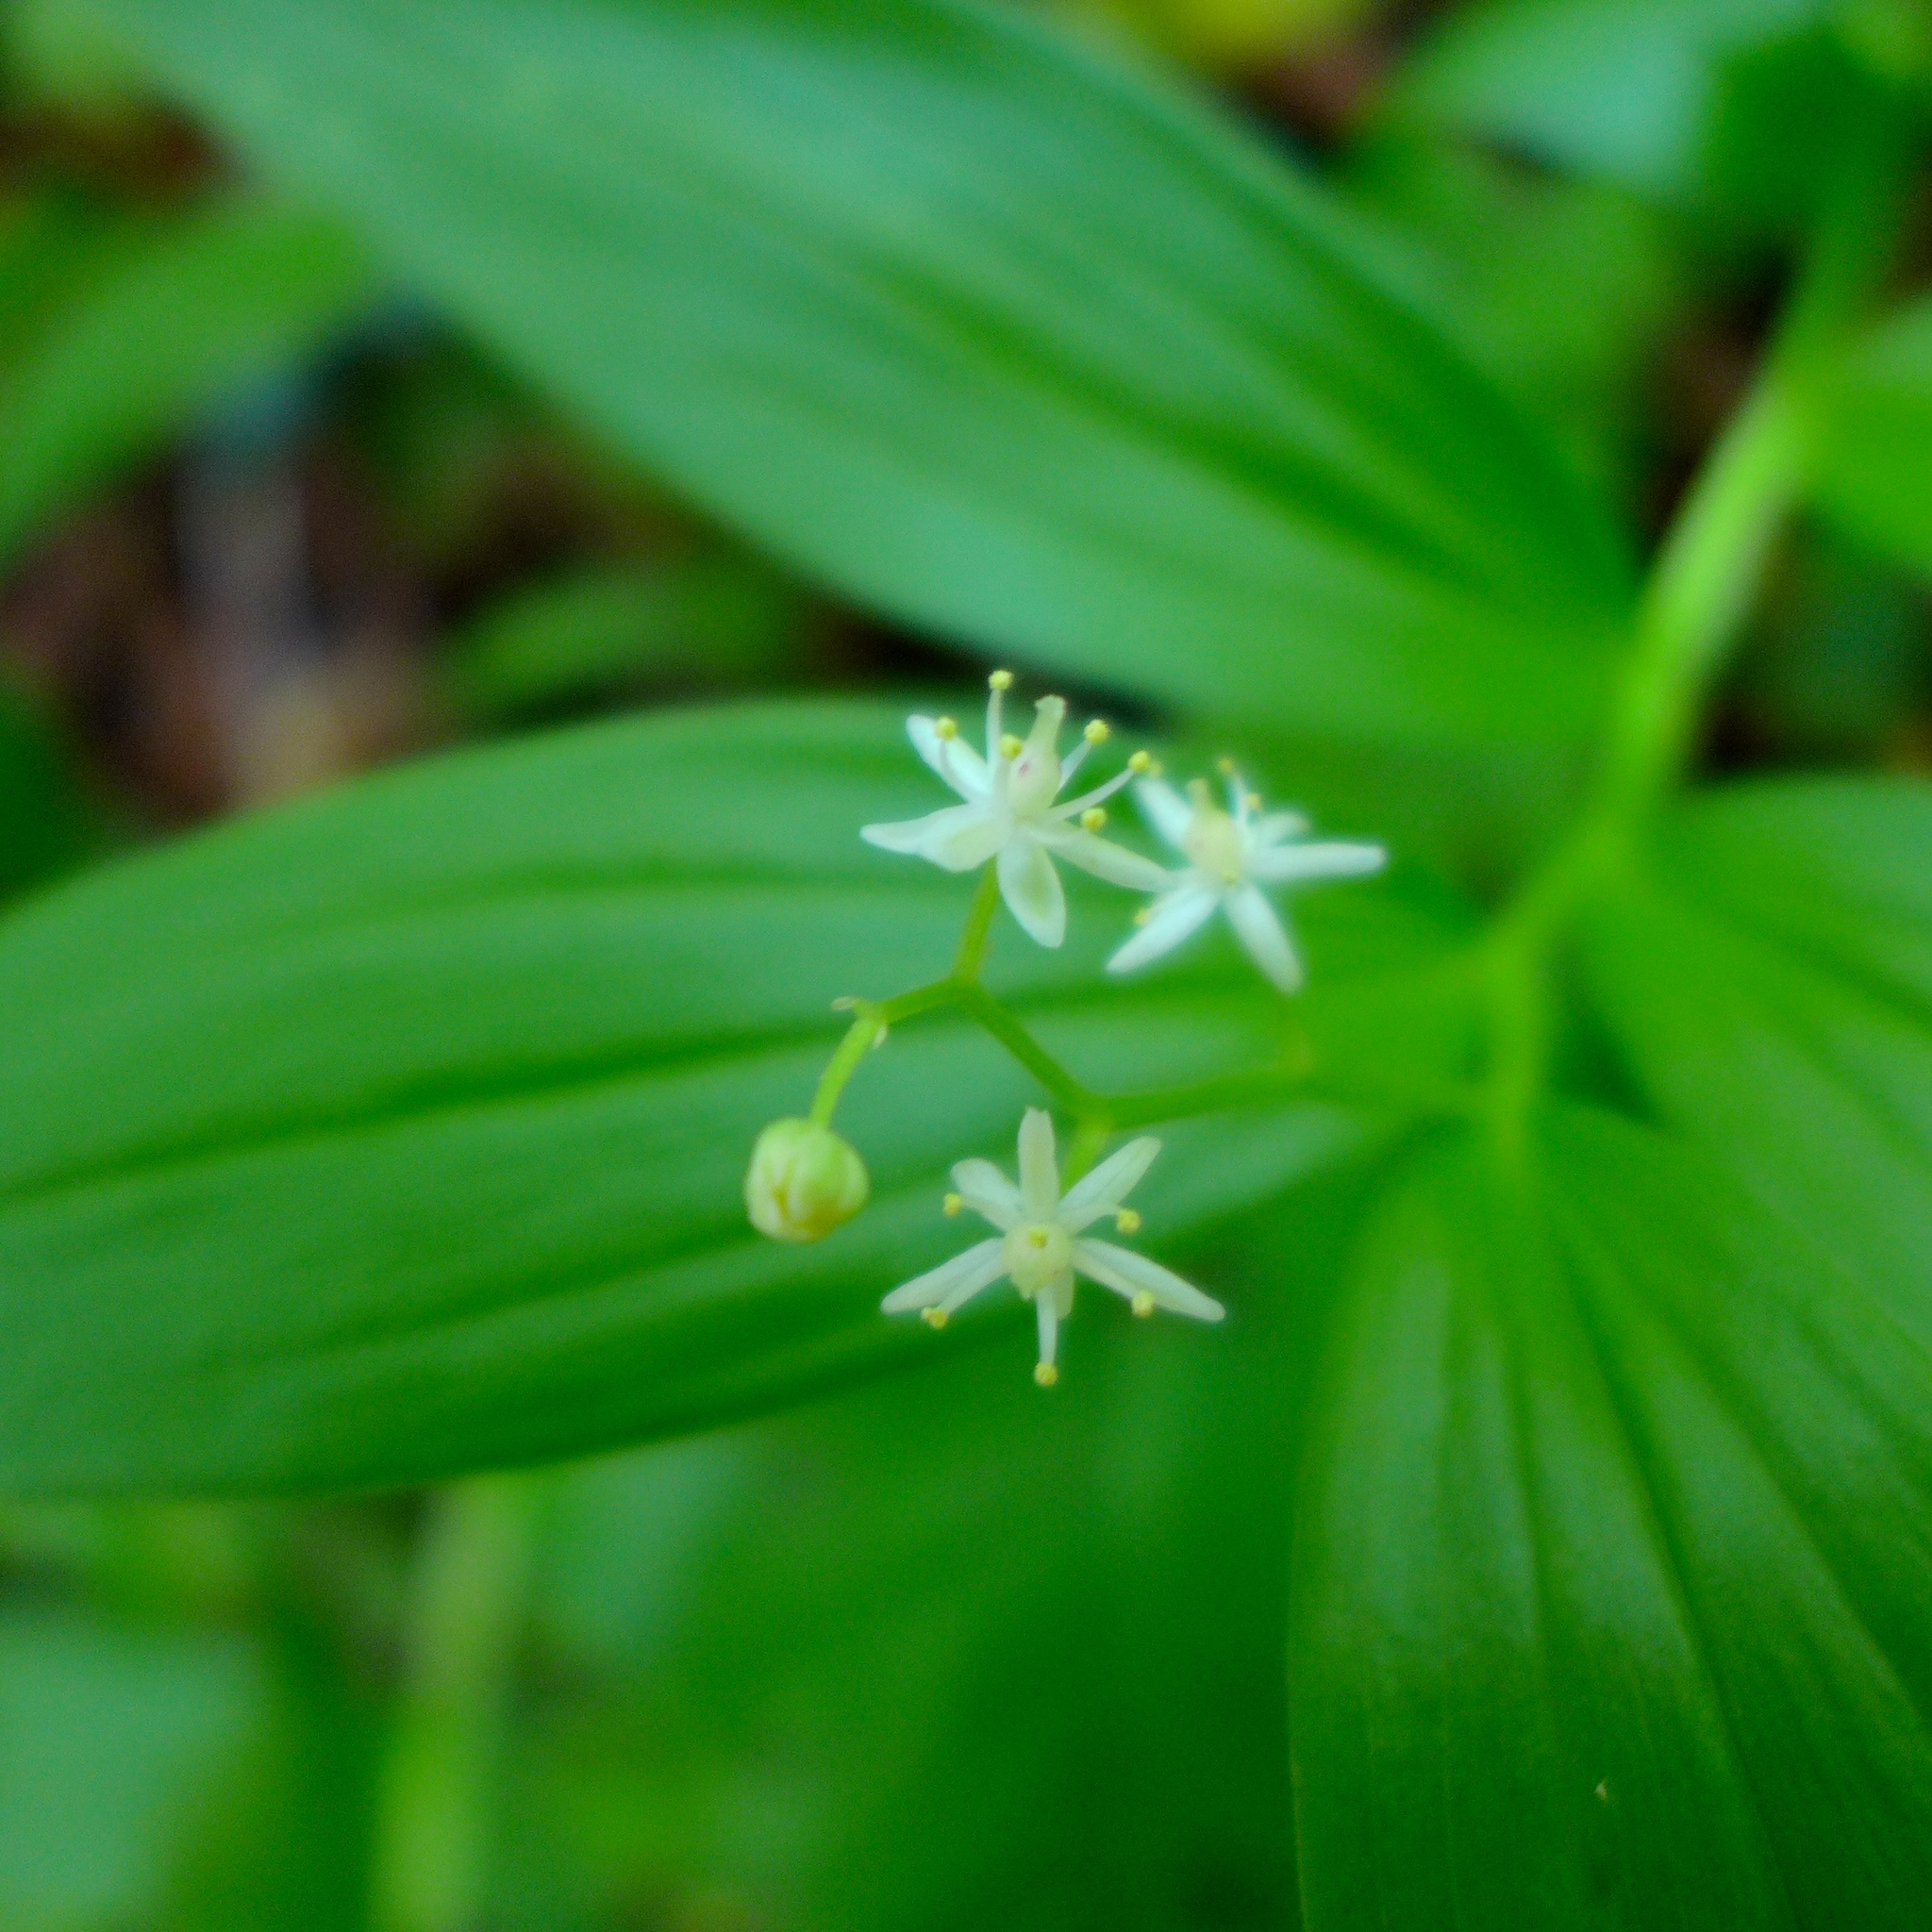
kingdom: Plantae
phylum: Tracheophyta
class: Liliopsida
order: Asparagales
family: Asparagaceae
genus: Maianthemum
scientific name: Maianthemum stellatum
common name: Little false solomon's seal
